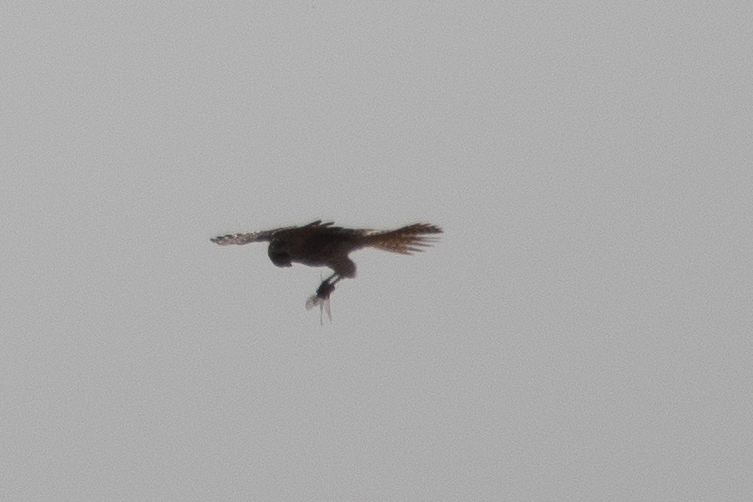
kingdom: Animalia
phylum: Chordata
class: Aves
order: Falconiformes
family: Falconidae
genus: Falco
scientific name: Falco sparverius
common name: American kestrel
